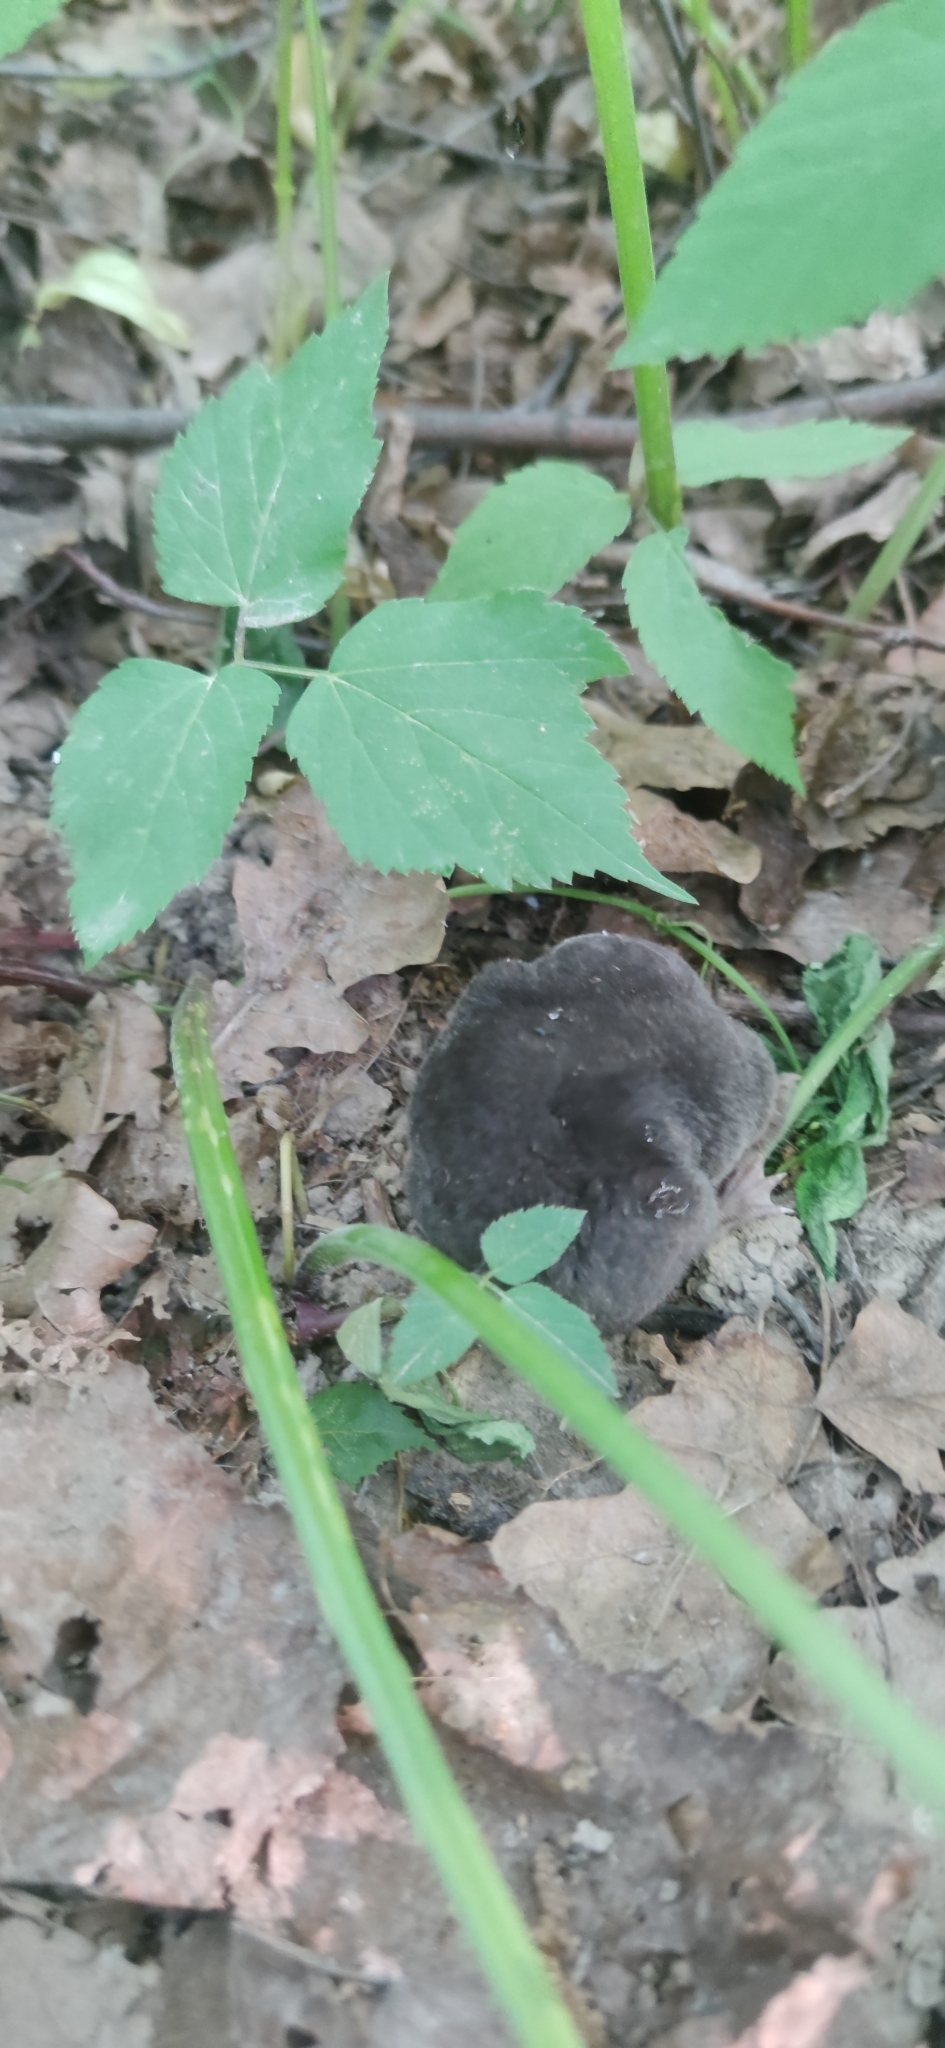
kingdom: Animalia
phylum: Chordata
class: Mammalia
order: Soricomorpha
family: Talpidae
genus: Talpa
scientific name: Talpa europaea
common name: European mole
